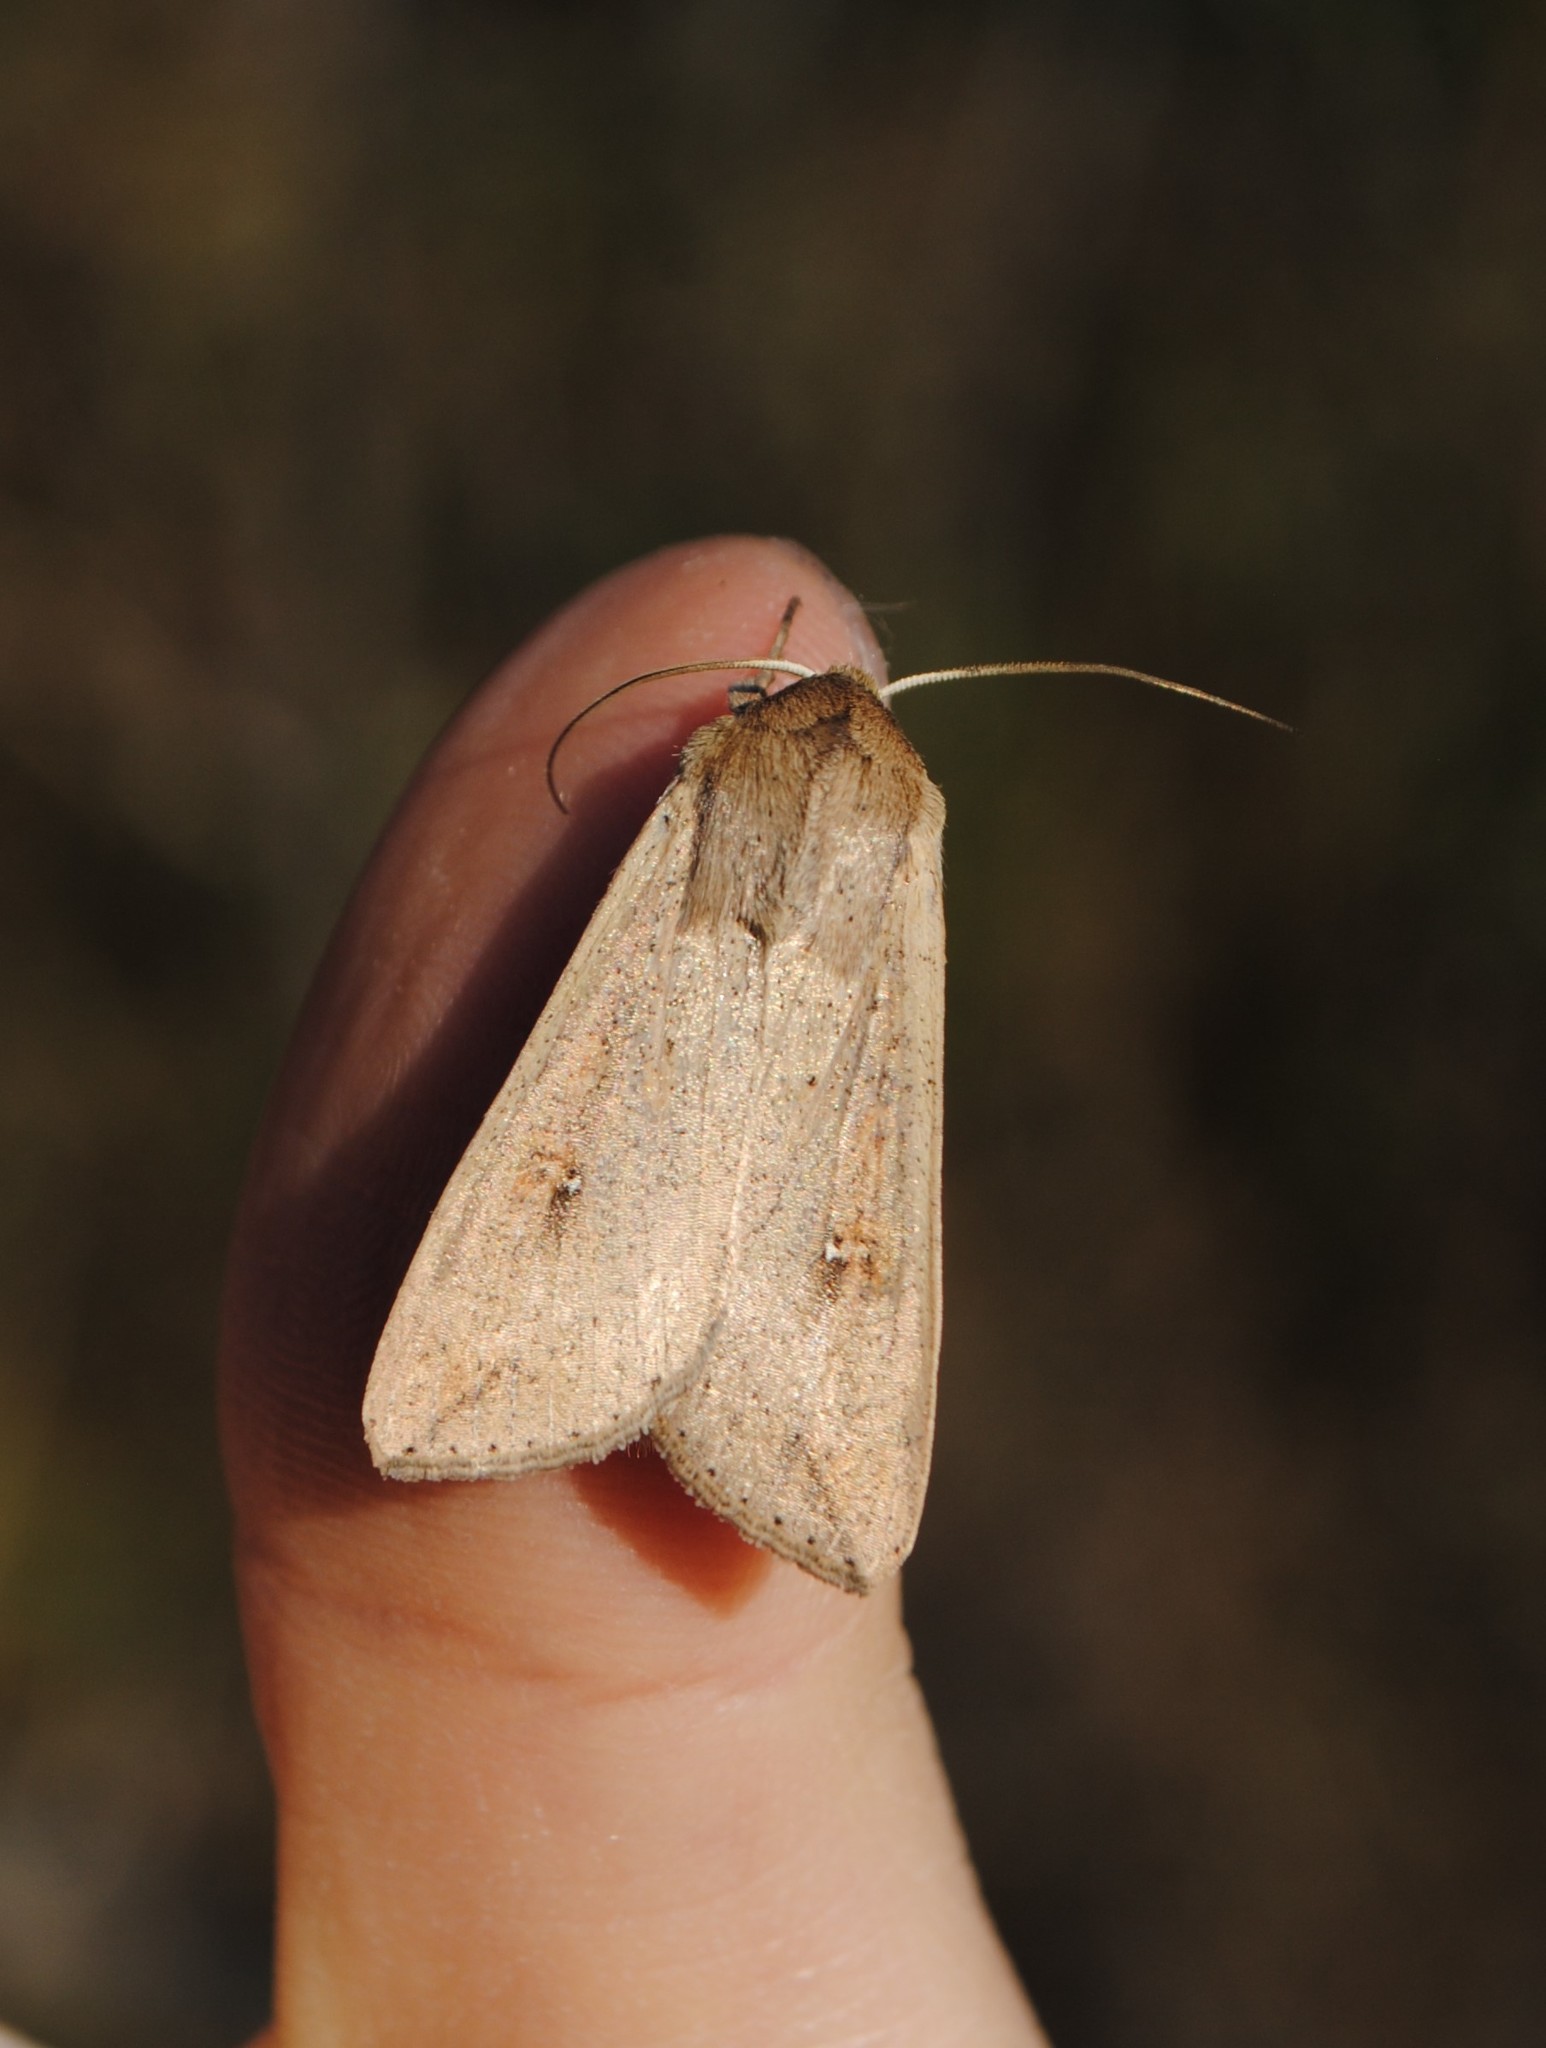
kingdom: Animalia
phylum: Arthropoda
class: Insecta
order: Lepidoptera
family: Noctuidae
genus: Mythimna
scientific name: Mythimna unipuncta
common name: White-speck
